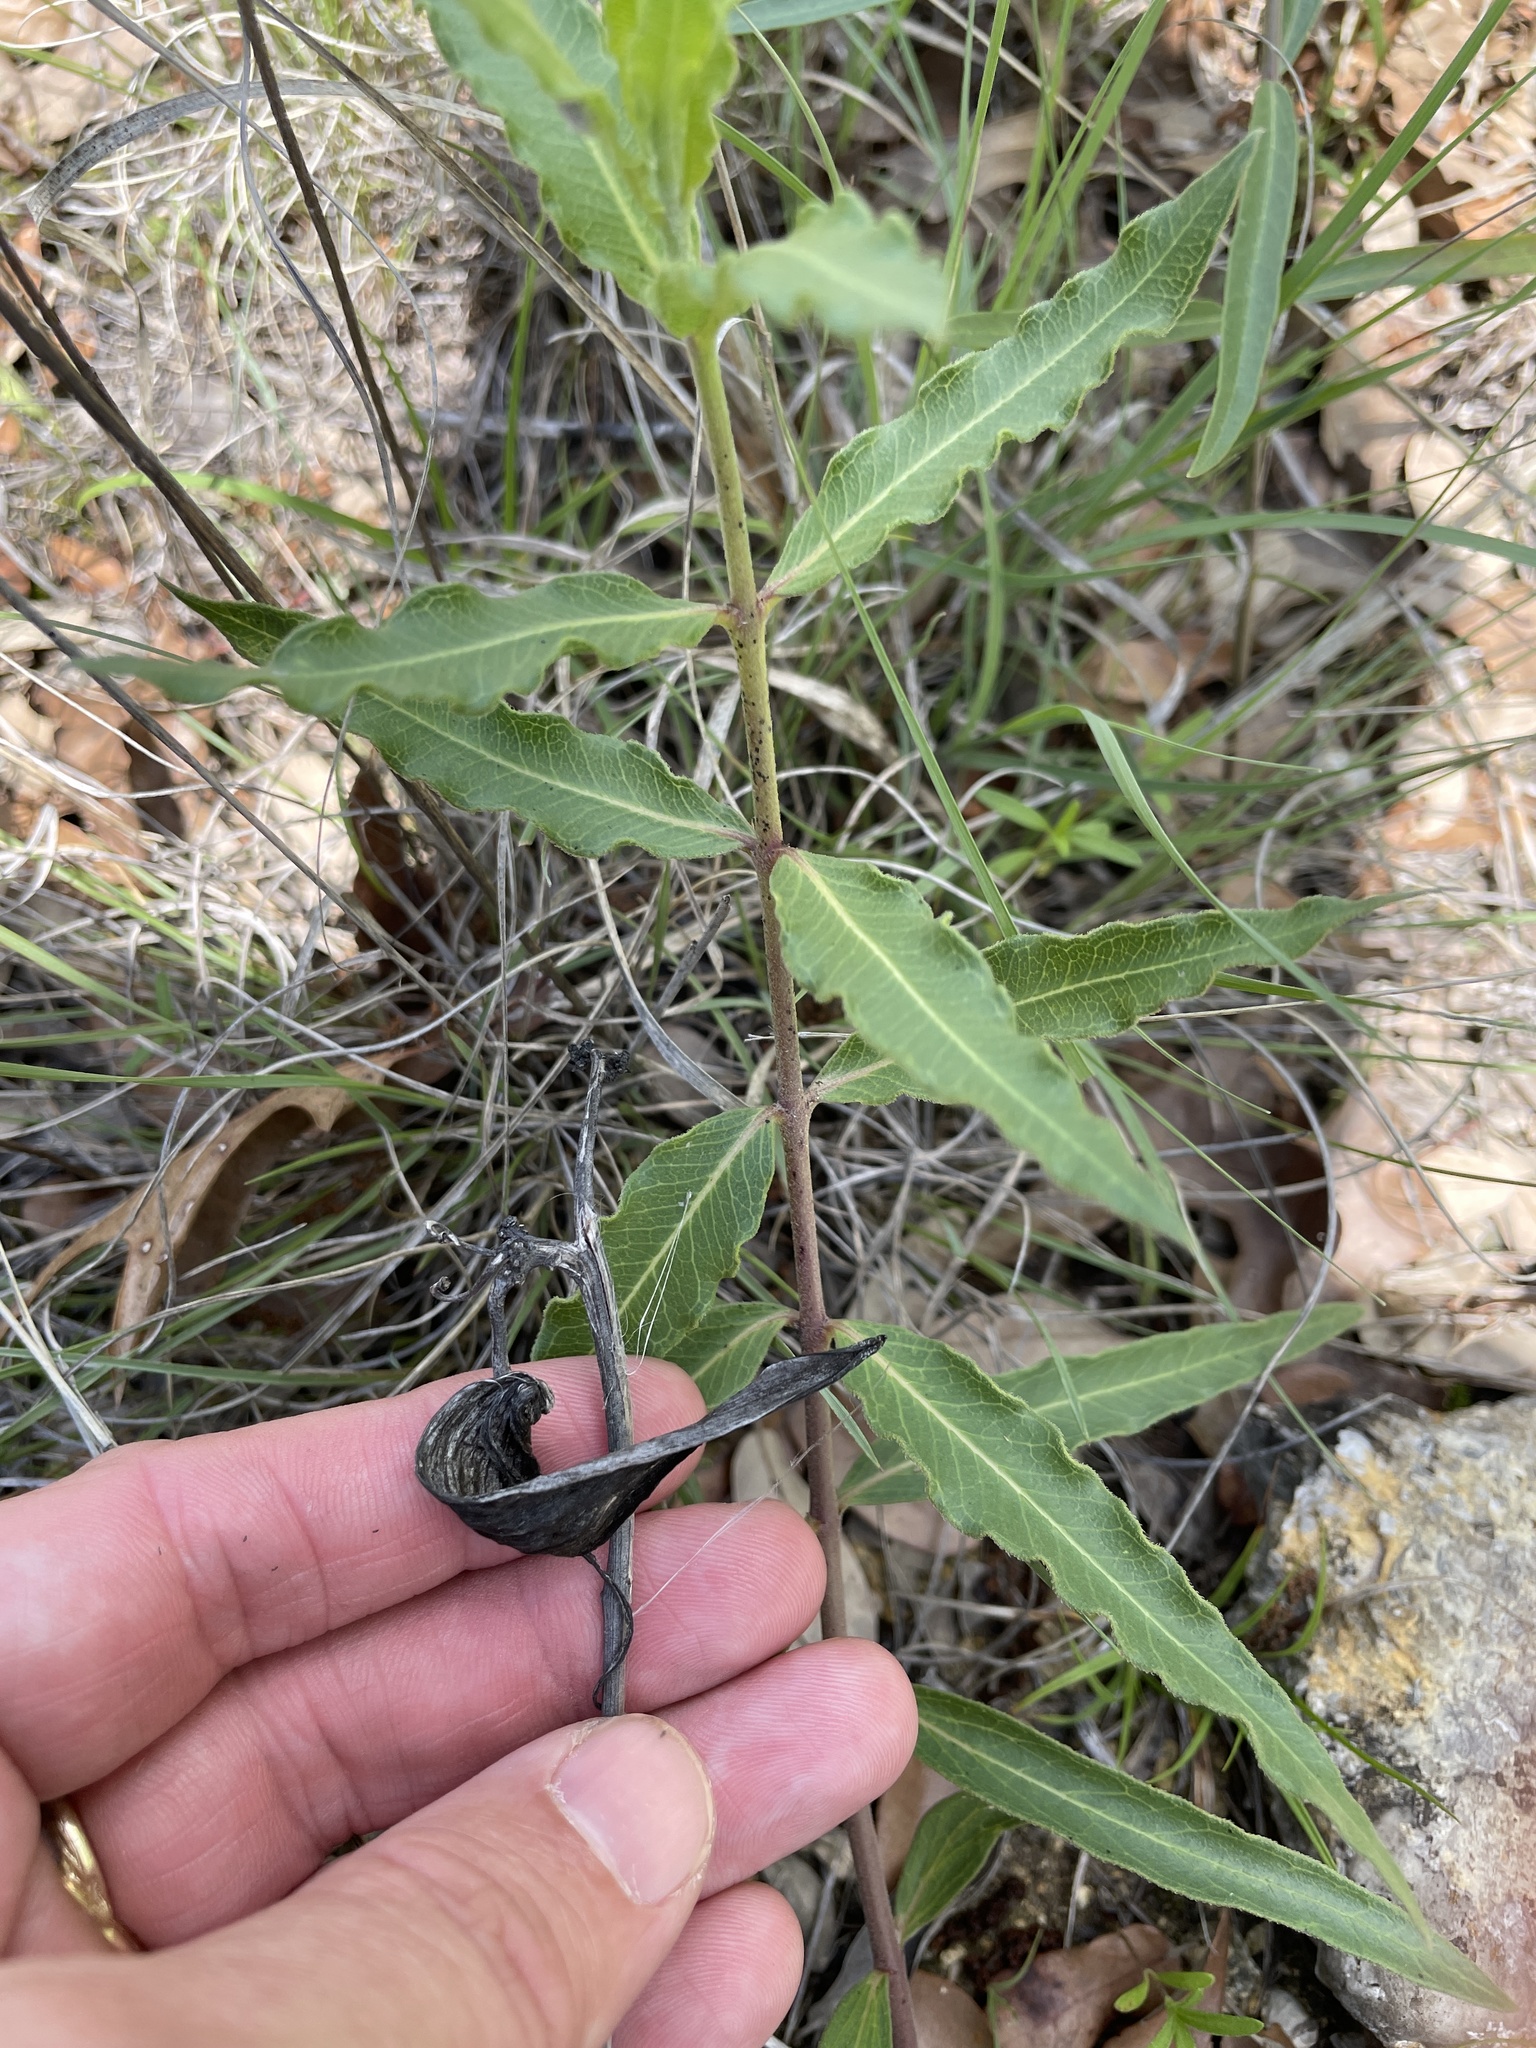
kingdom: Plantae
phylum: Tracheophyta
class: Magnoliopsida
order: Gentianales
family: Apocynaceae
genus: Asclepias
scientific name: Asclepias viridiflora
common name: Green comet milkweed
